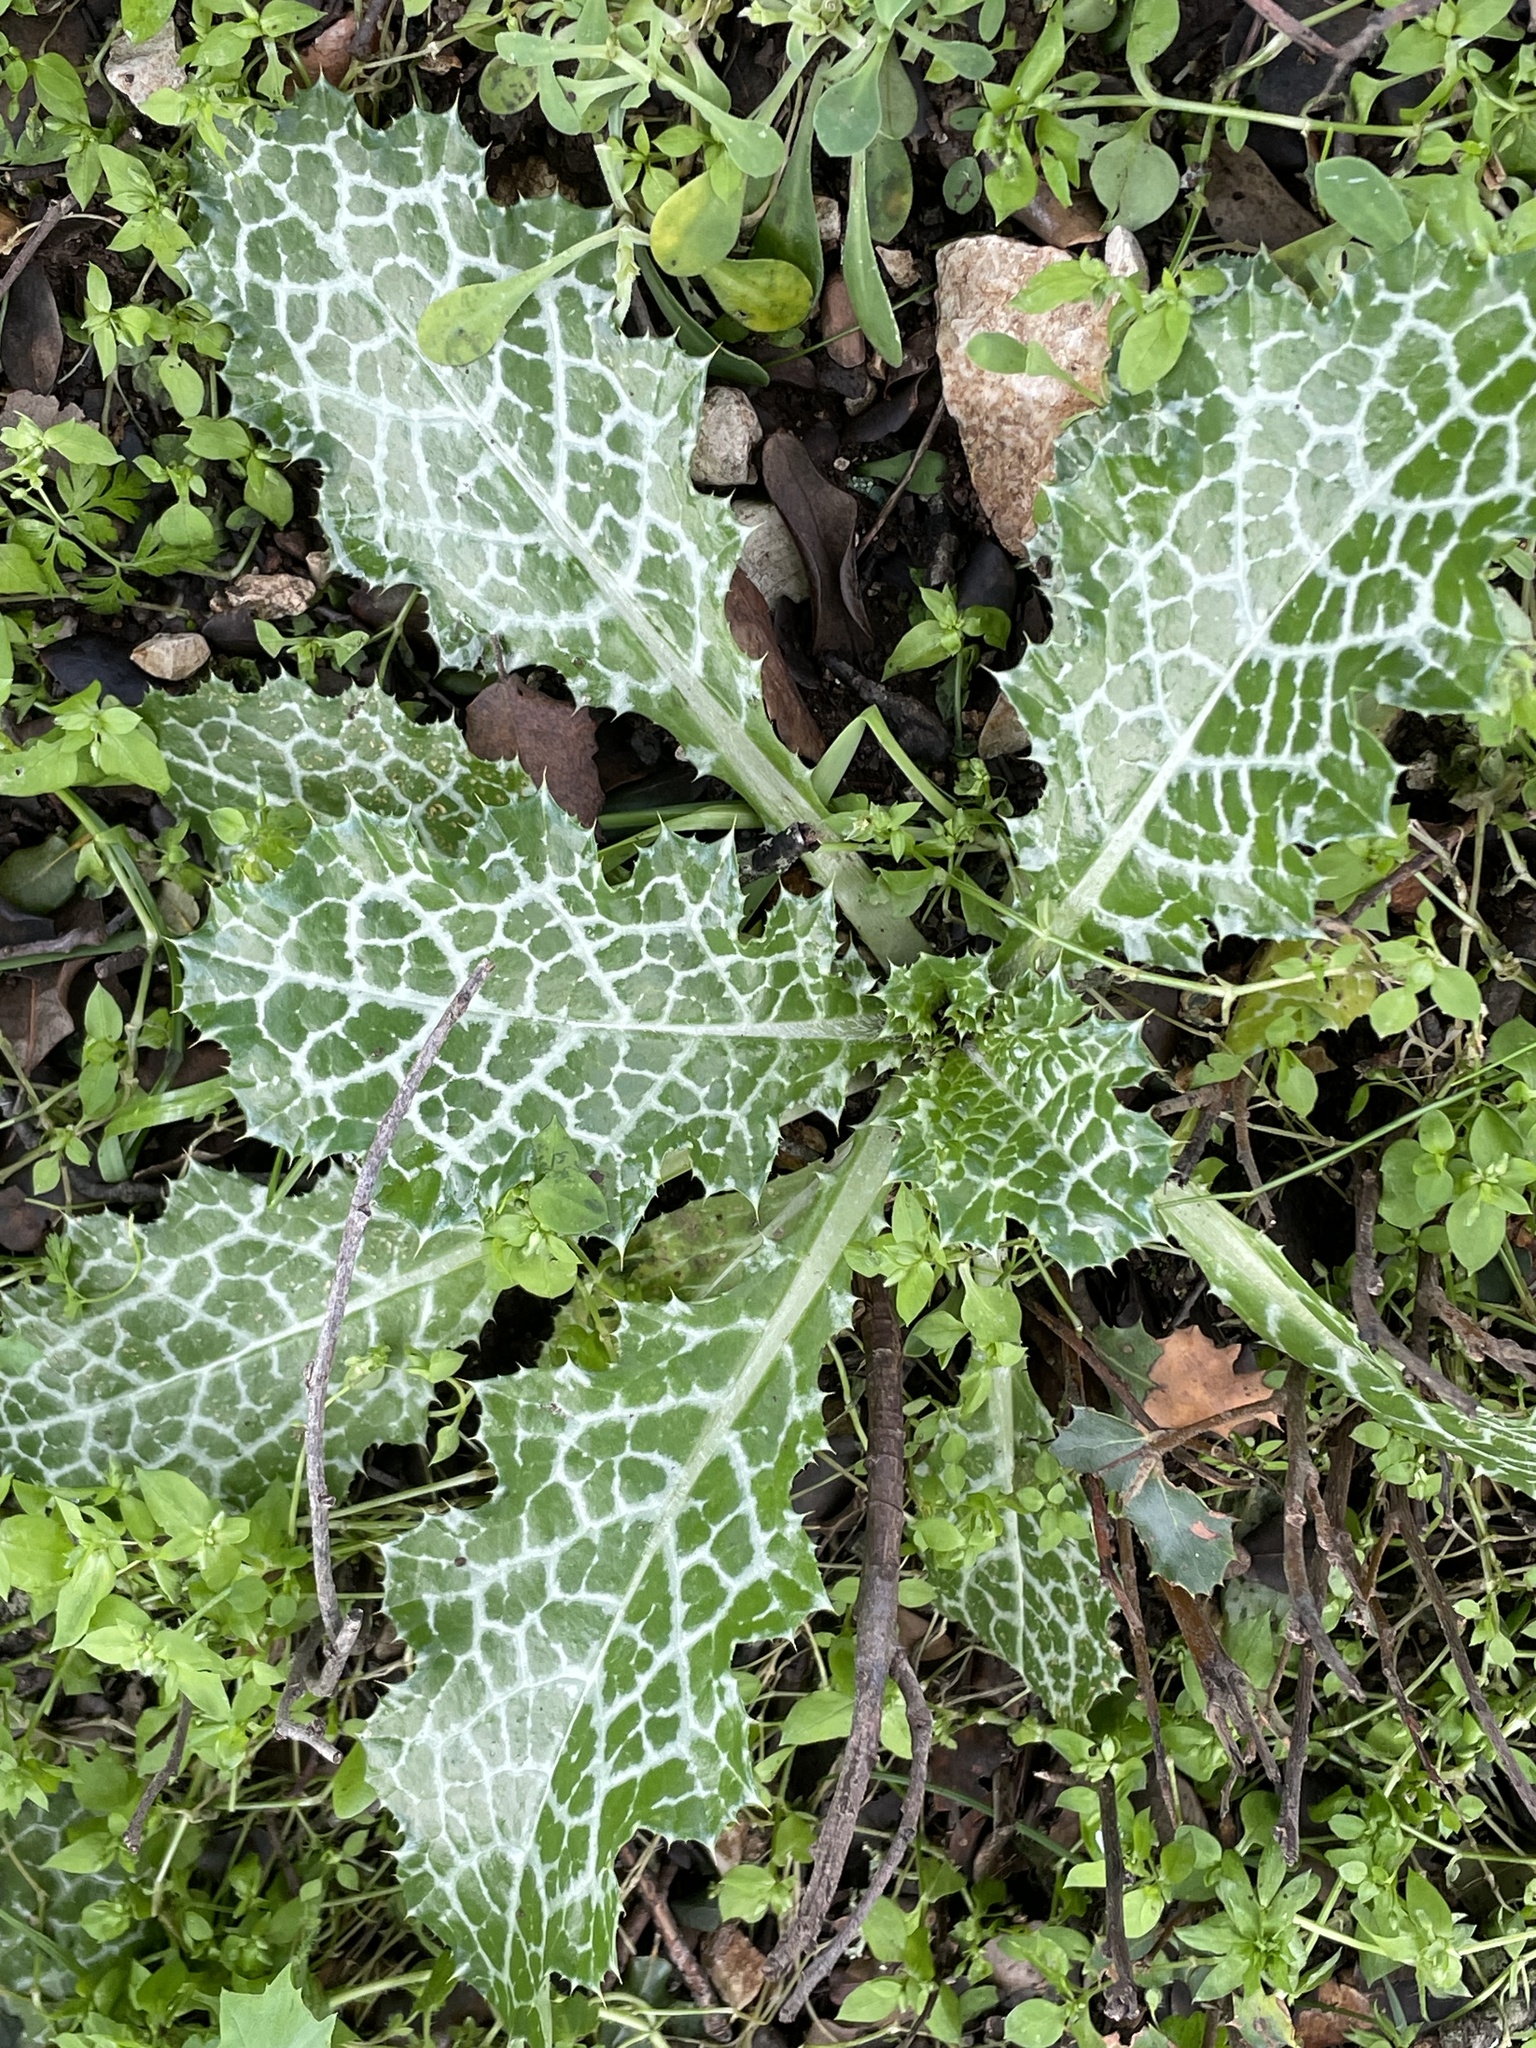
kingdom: Plantae
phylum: Tracheophyta
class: Magnoliopsida
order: Asterales
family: Asteraceae
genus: Notobasis
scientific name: Notobasis syriaca
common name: Syrian thistle
